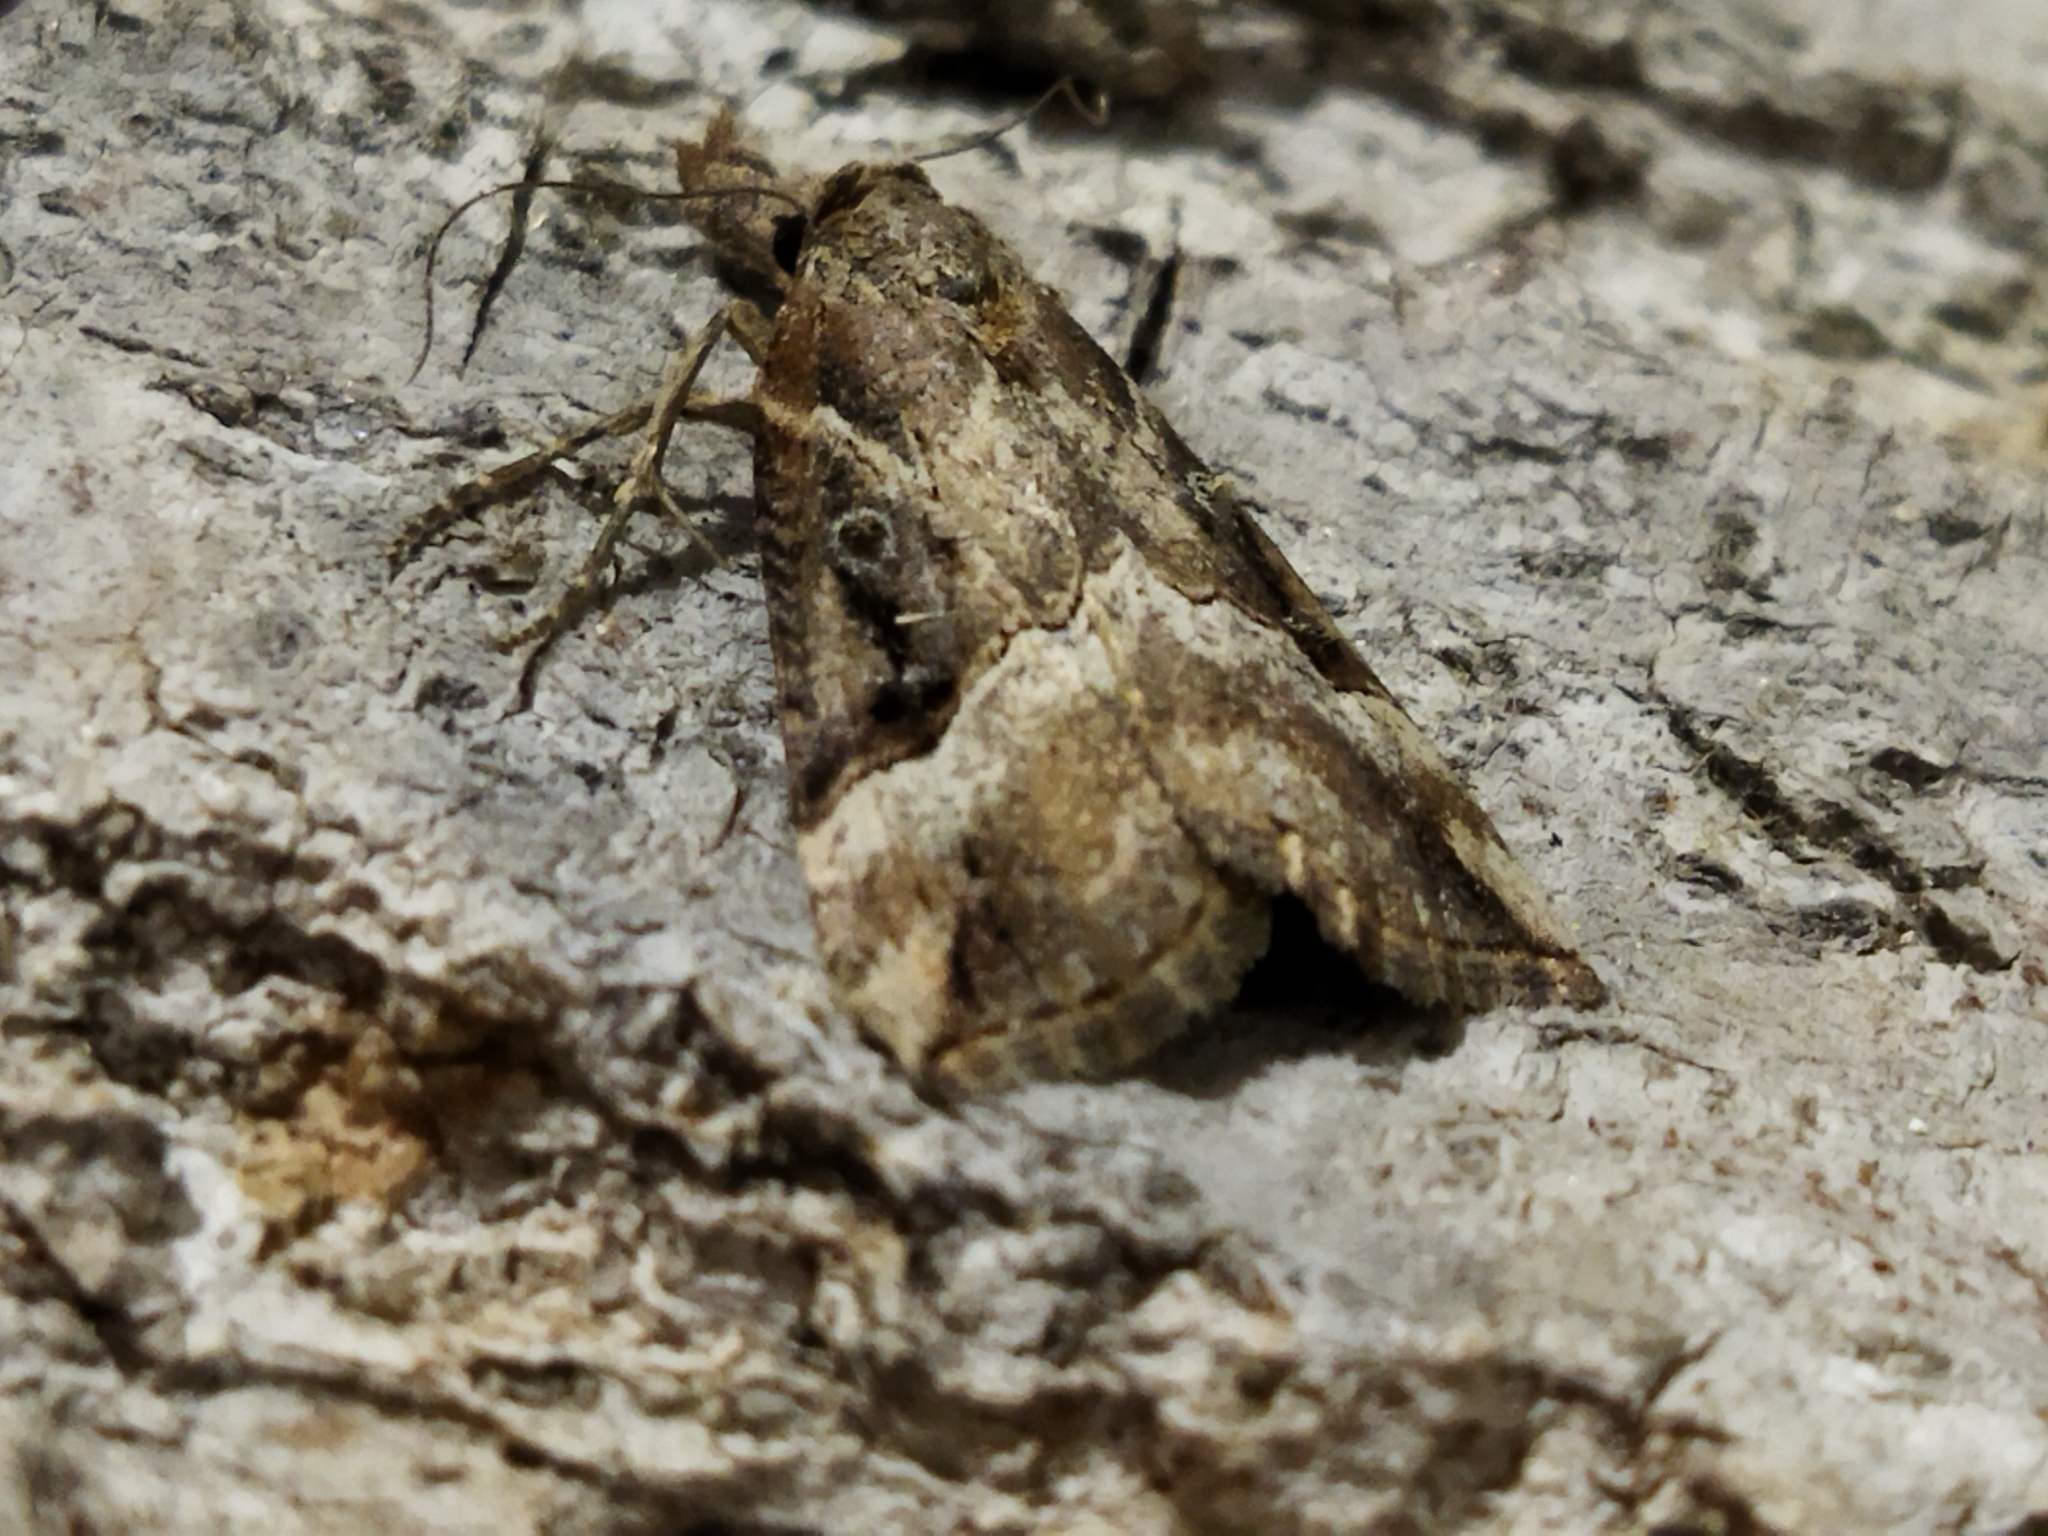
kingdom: Animalia
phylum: Arthropoda
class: Insecta
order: Lepidoptera
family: Erebidae
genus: Hypena
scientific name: Hypena rostralis
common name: Buttoned snout
